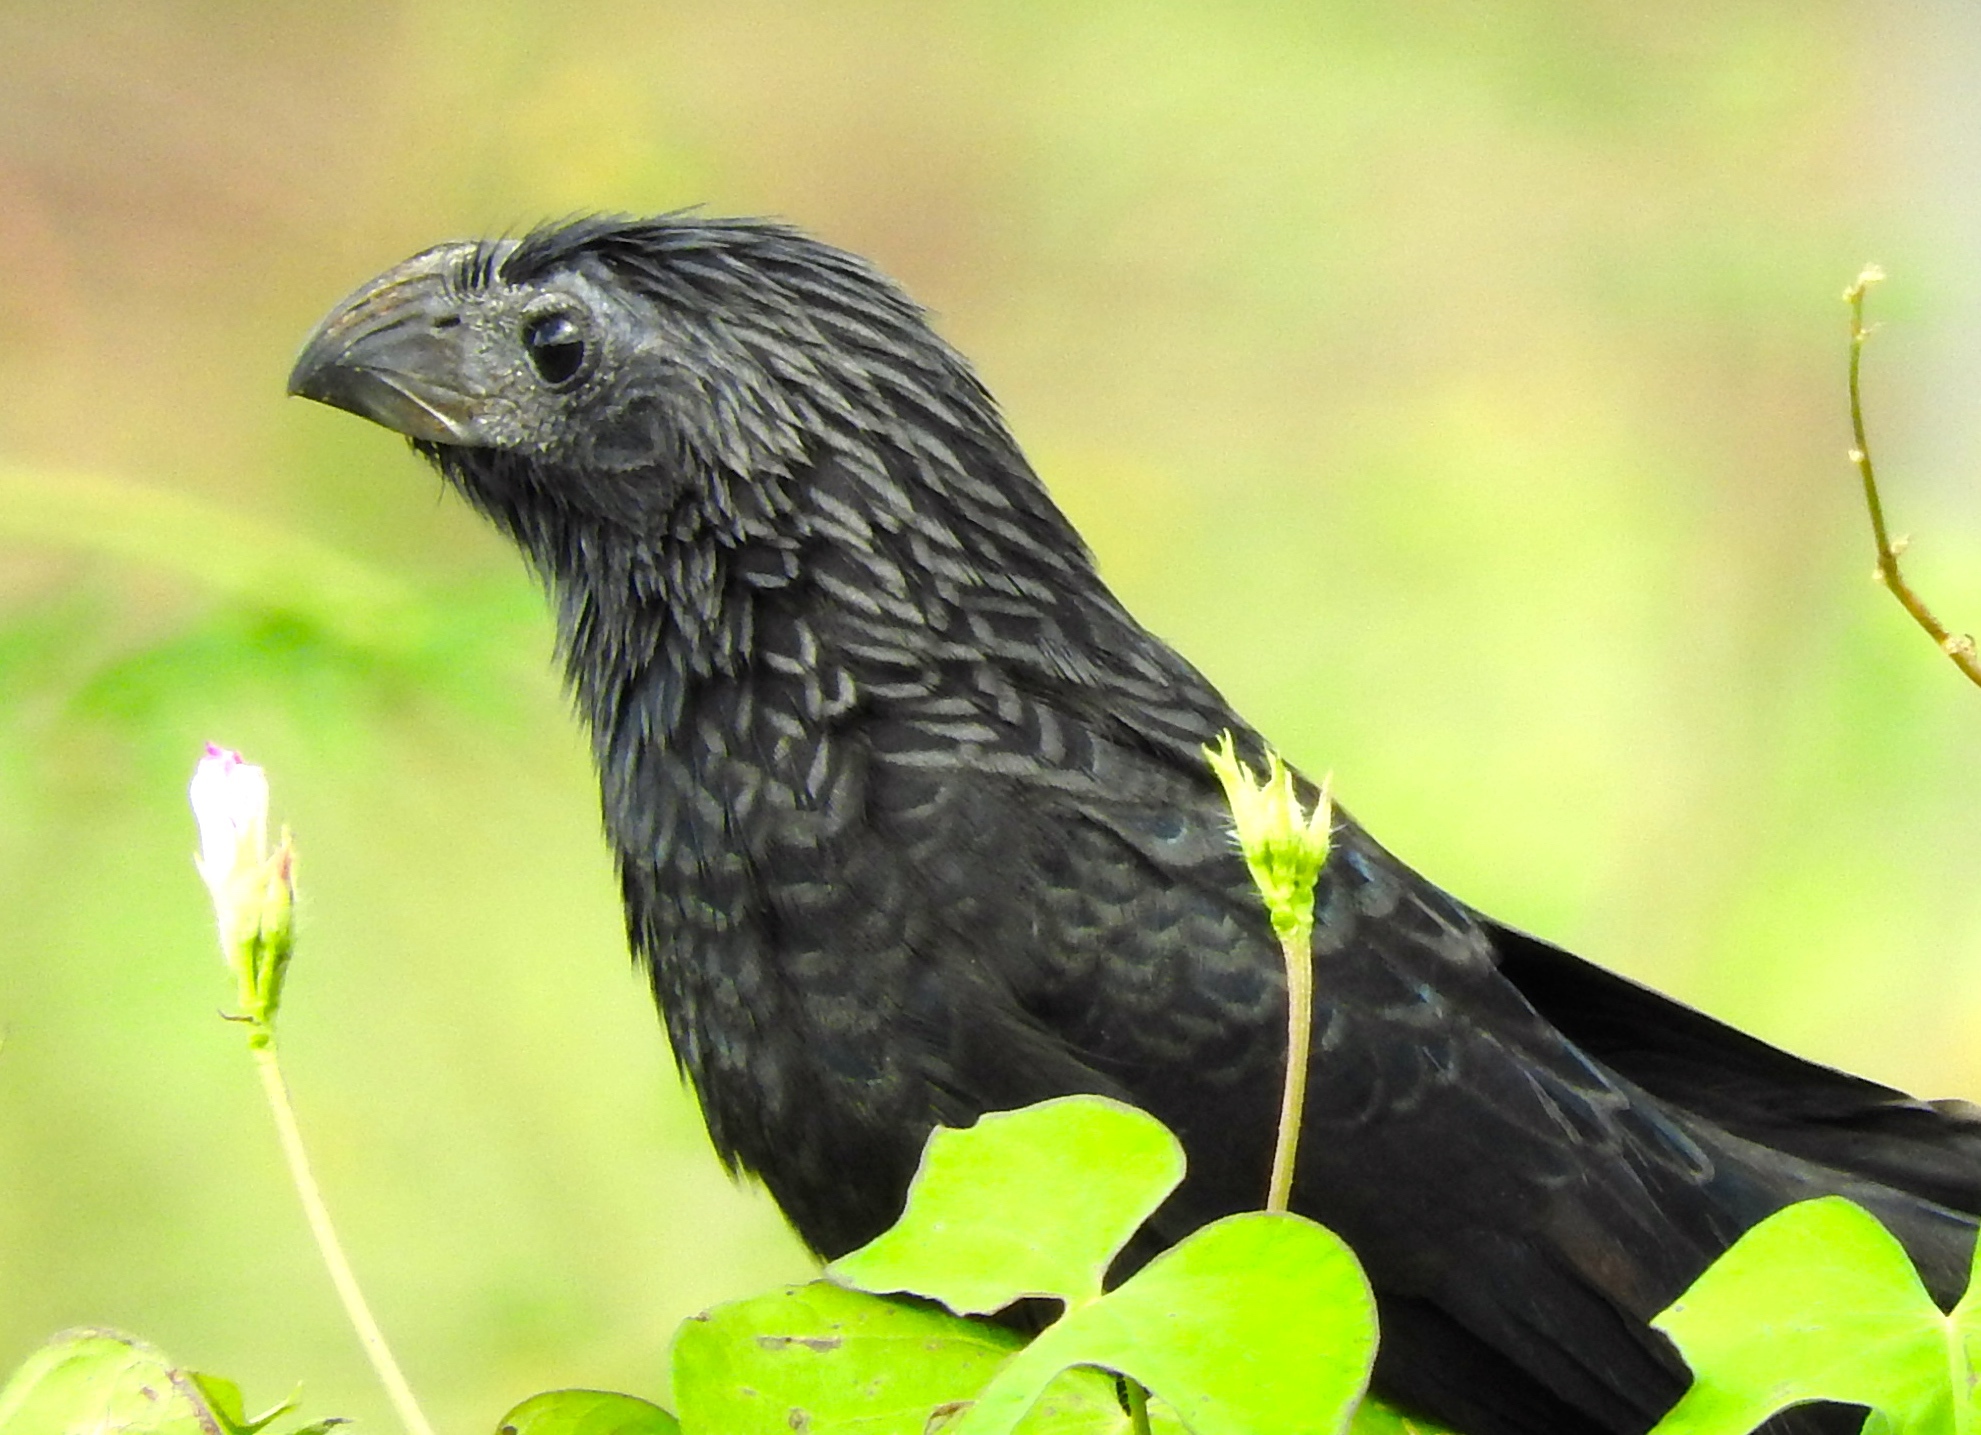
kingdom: Animalia
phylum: Chordata
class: Aves
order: Cuculiformes
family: Cuculidae
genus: Crotophaga
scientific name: Crotophaga sulcirostris
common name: Groove-billed ani
